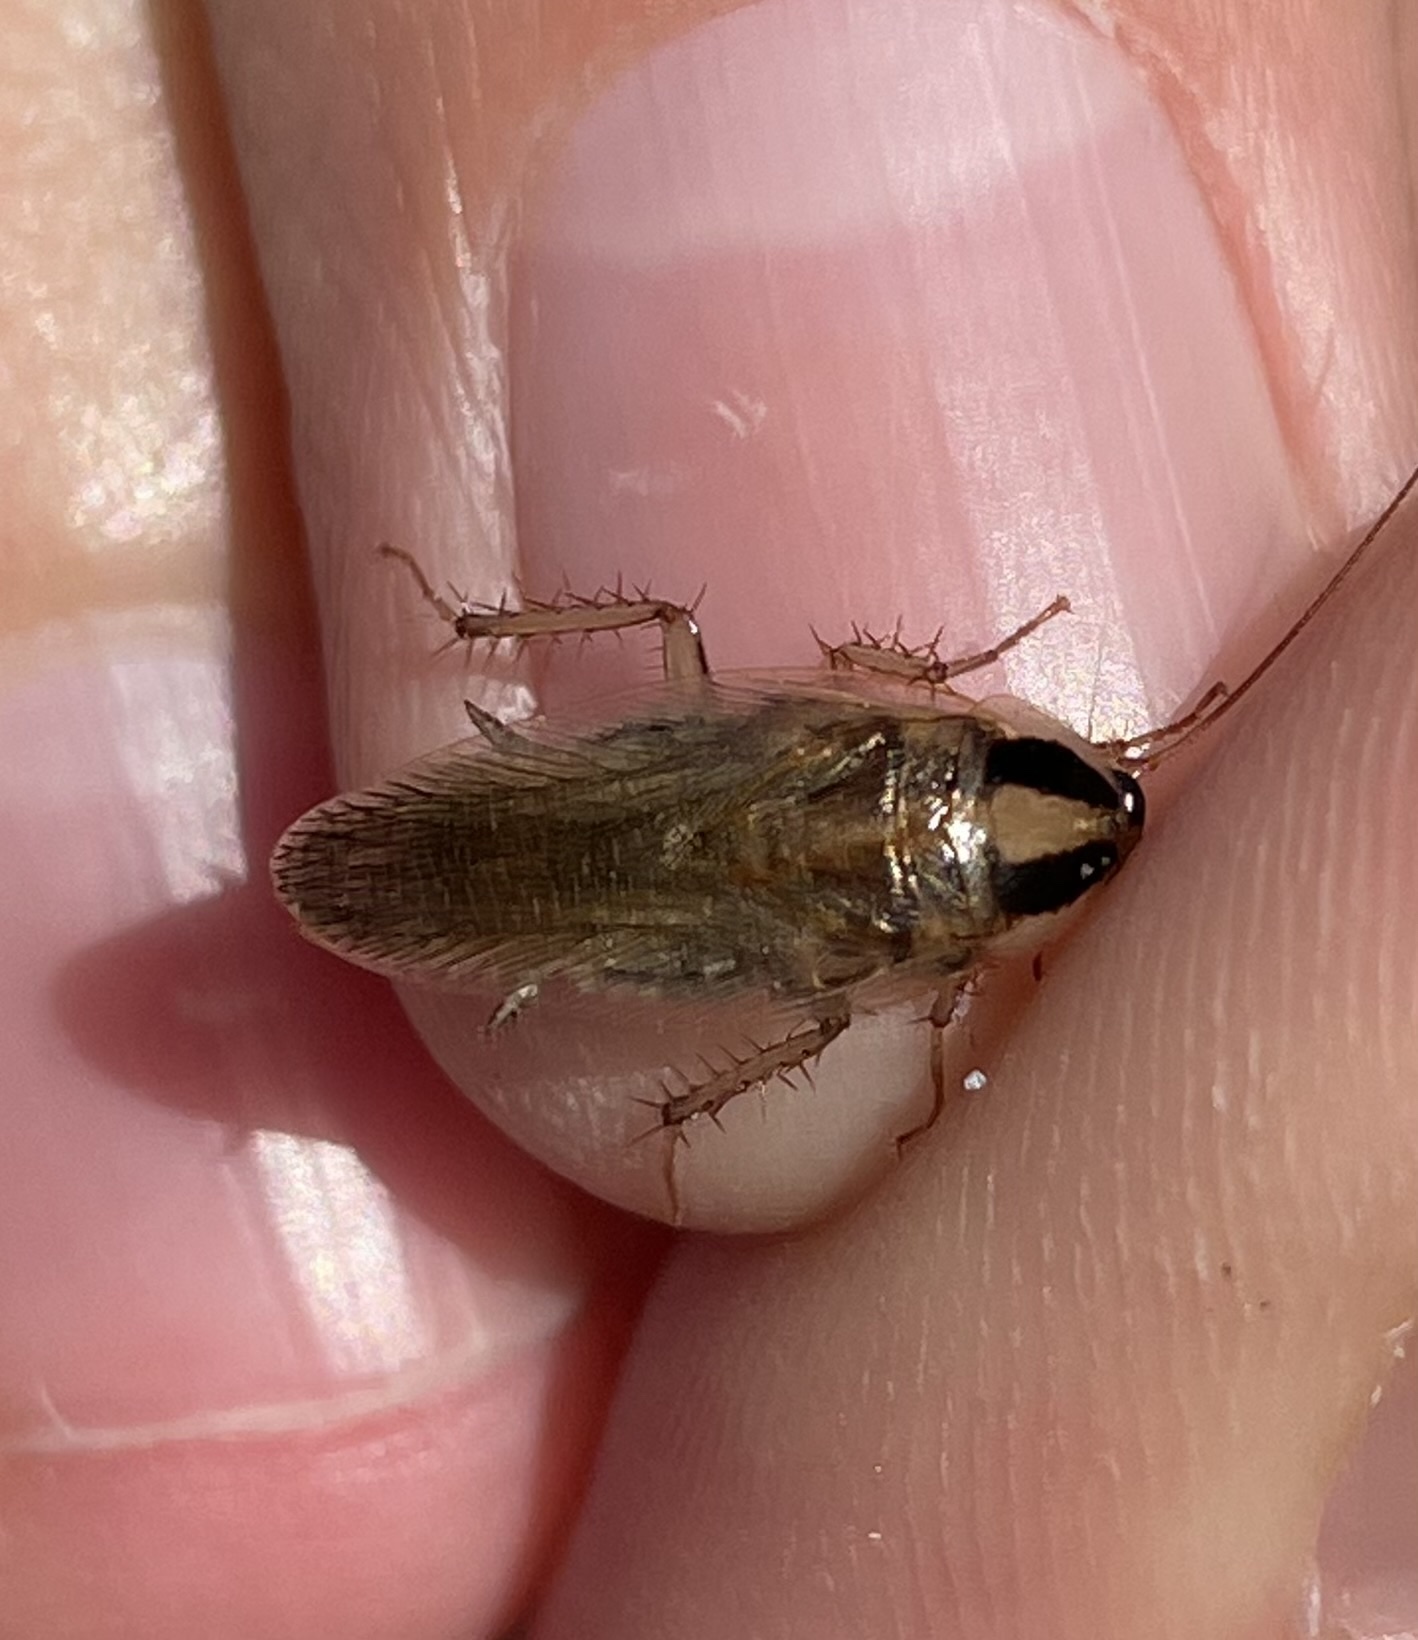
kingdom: Animalia
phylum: Arthropoda
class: Insecta
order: Blattodea
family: Ectobiidae
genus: Blattella
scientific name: Blattella vaga
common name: Field cockroach
